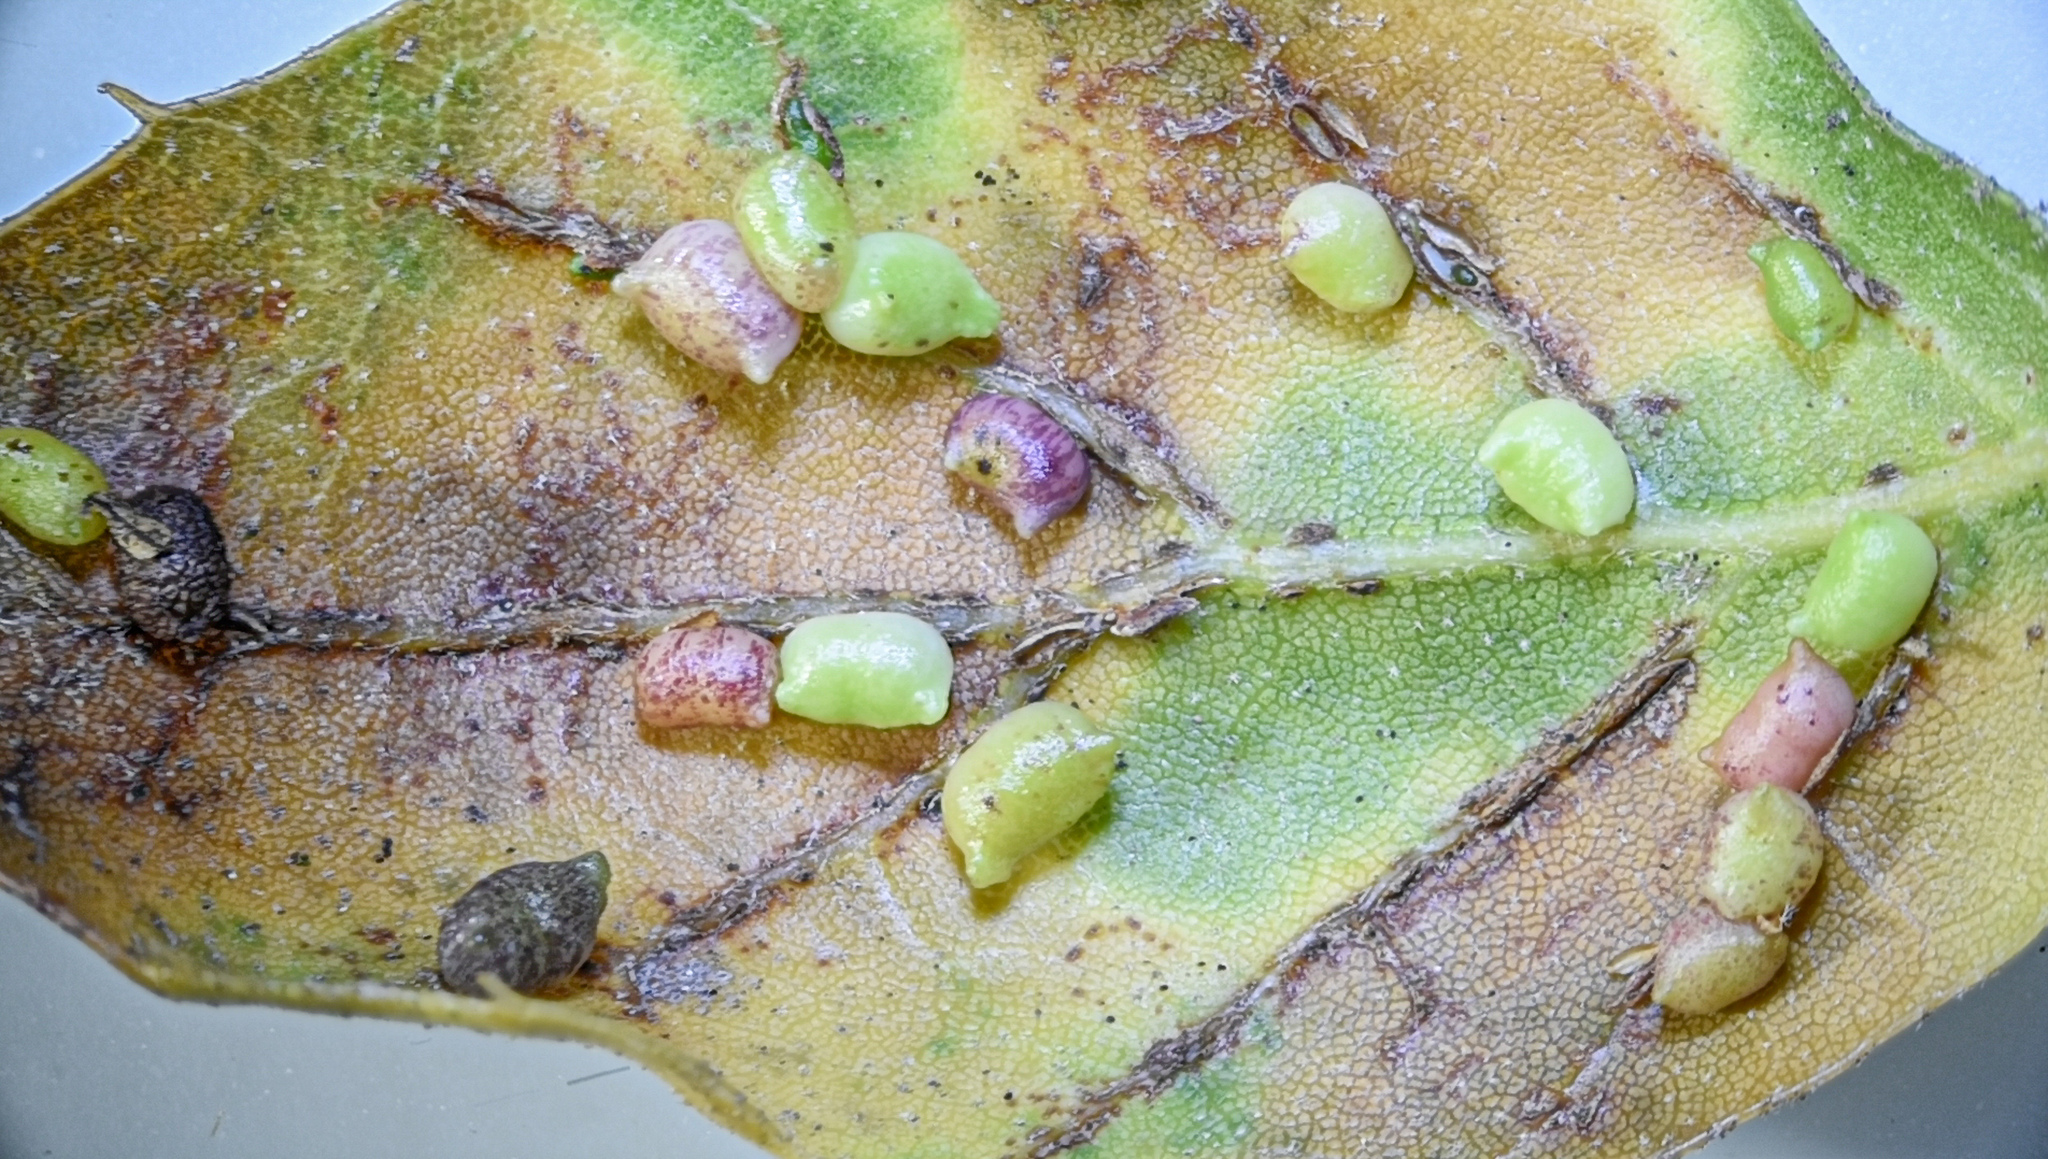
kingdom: Animalia
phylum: Arthropoda
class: Insecta
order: Hymenoptera
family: Cynipidae
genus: Dryocosmus
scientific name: Dryocosmus
